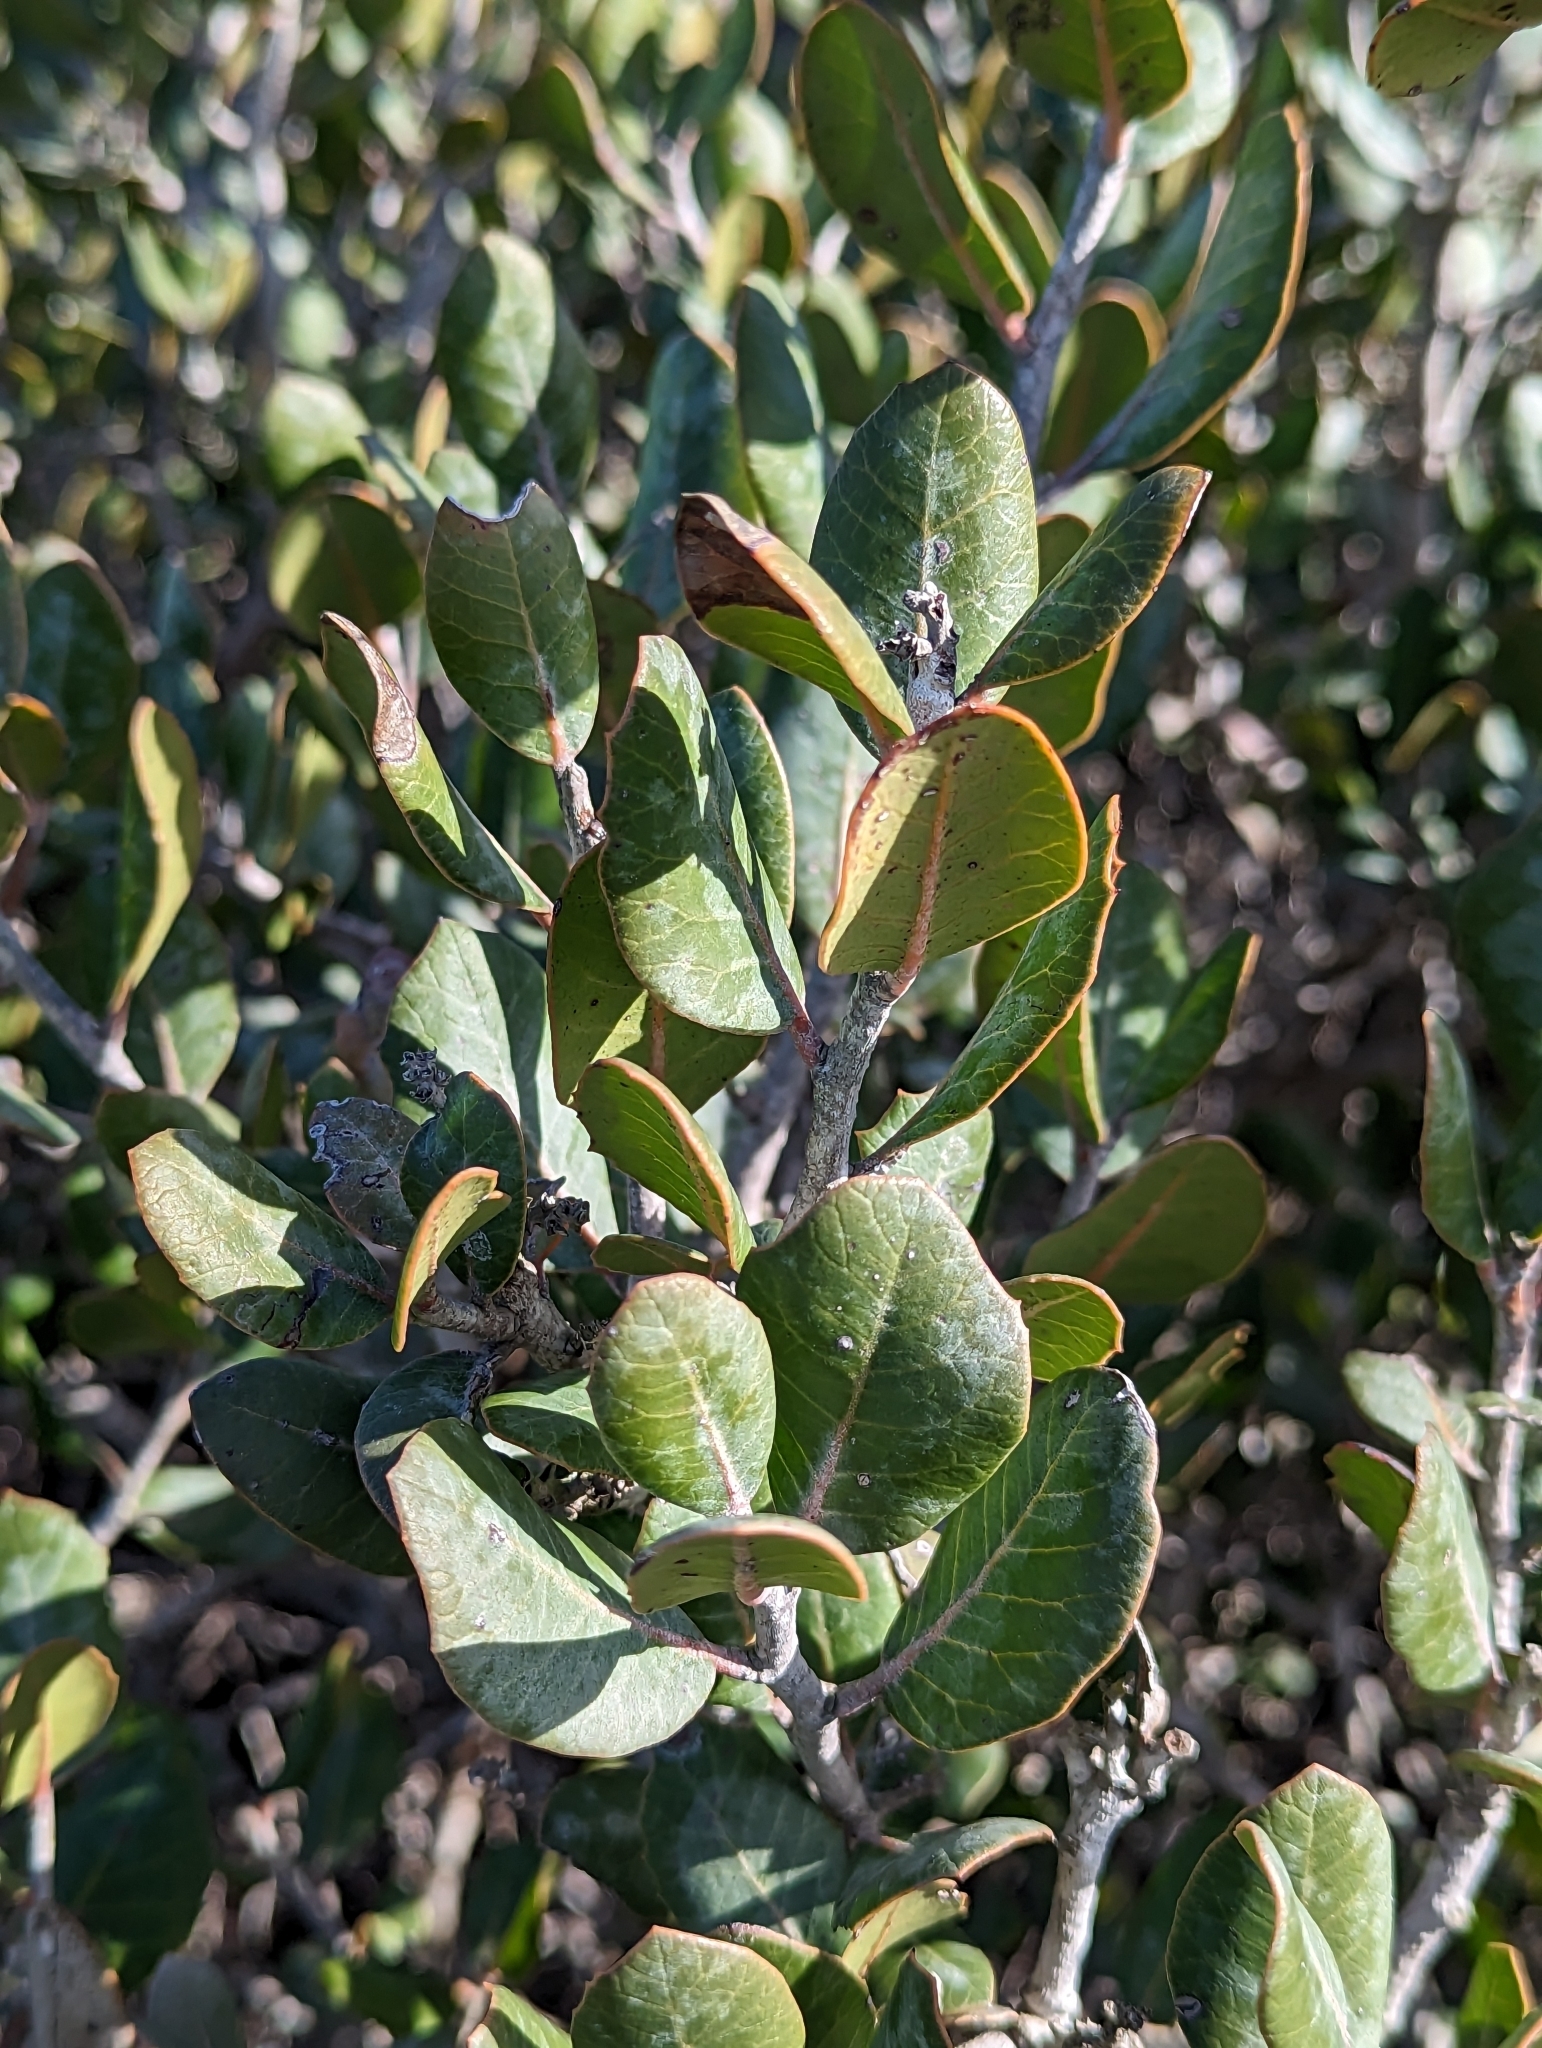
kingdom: Plantae
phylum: Tracheophyta
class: Magnoliopsida
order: Sapindales
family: Anacardiaceae
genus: Rhus
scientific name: Rhus integrifolia
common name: Lemonade sumac
